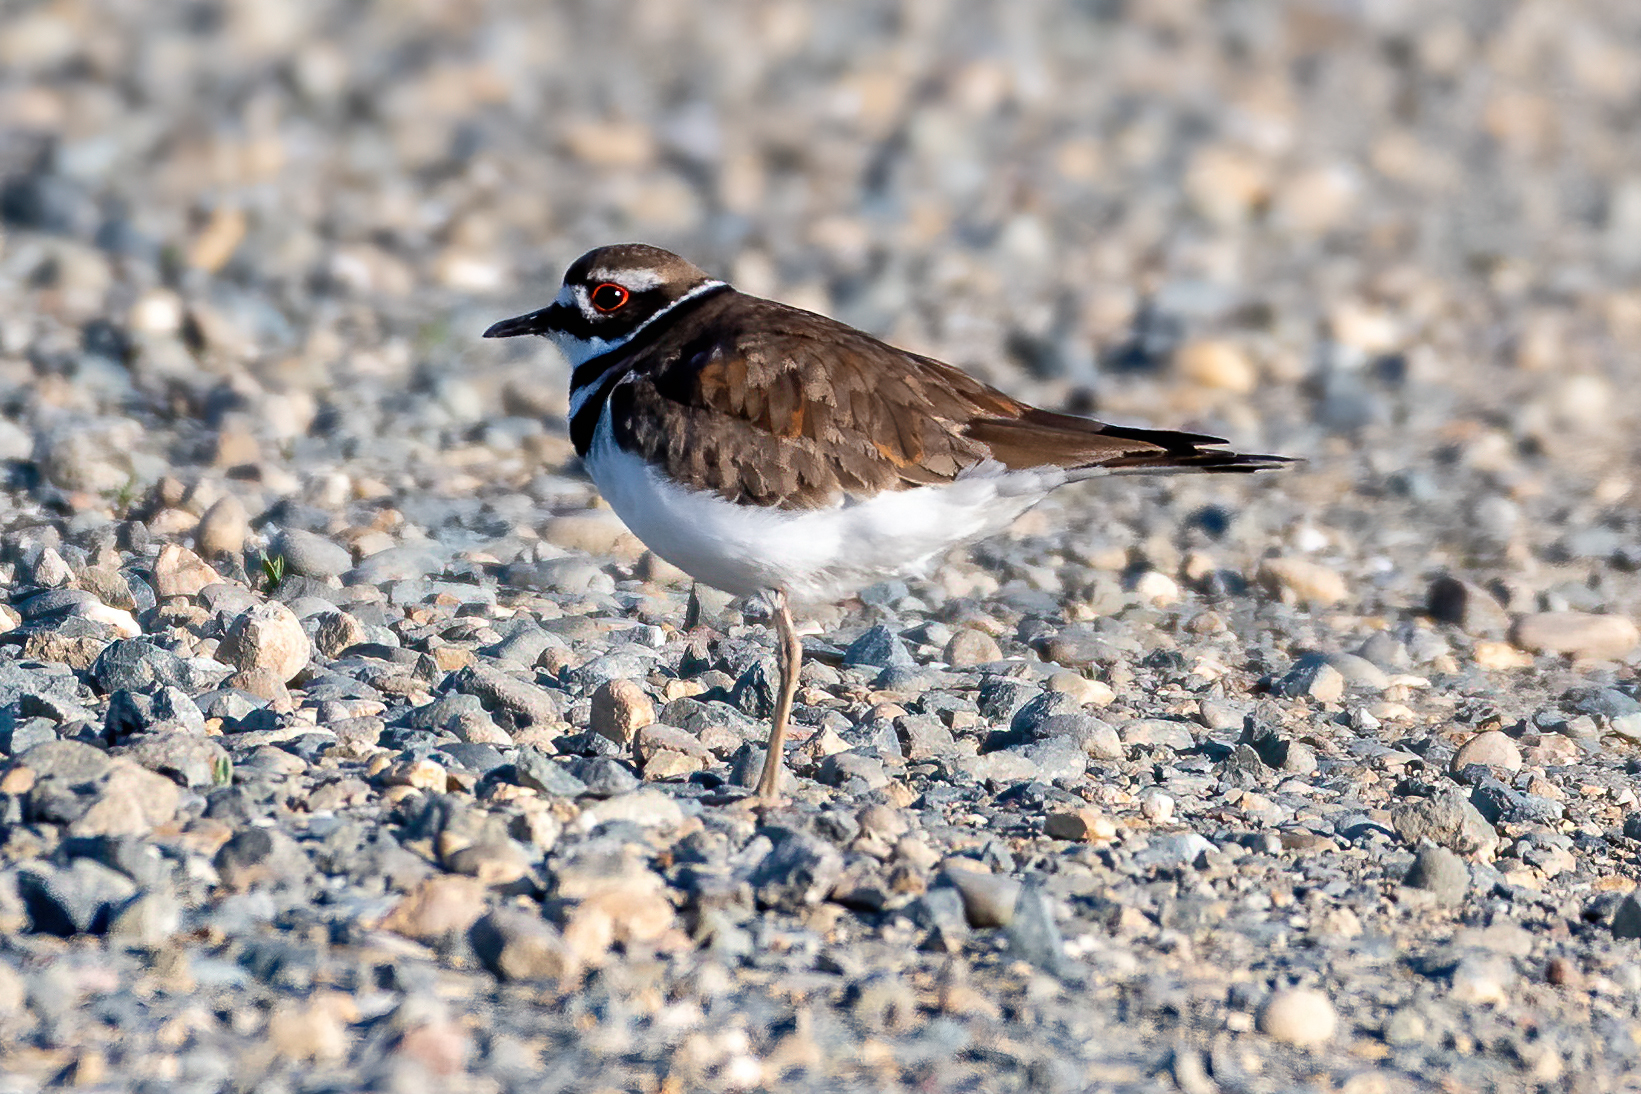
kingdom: Animalia
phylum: Chordata
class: Aves
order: Charadriiformes
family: Charadriidae
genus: Charadrius
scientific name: Charadrius vociferus
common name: Killdeer
